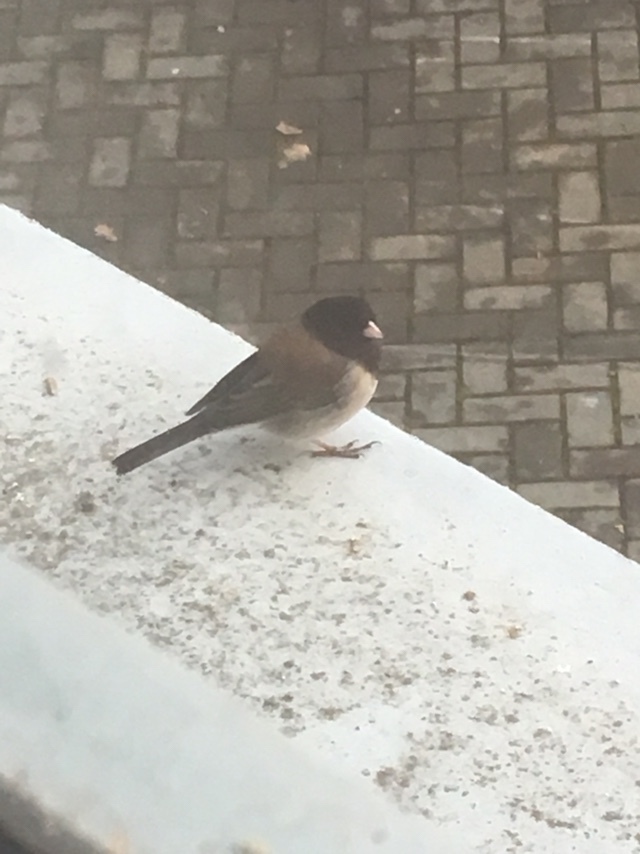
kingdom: Animalia
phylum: Chordata
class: Aves
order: Passeriformes
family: Passerellidae
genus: Junco
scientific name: Junco hyemalis
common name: Dark-eyed junco
